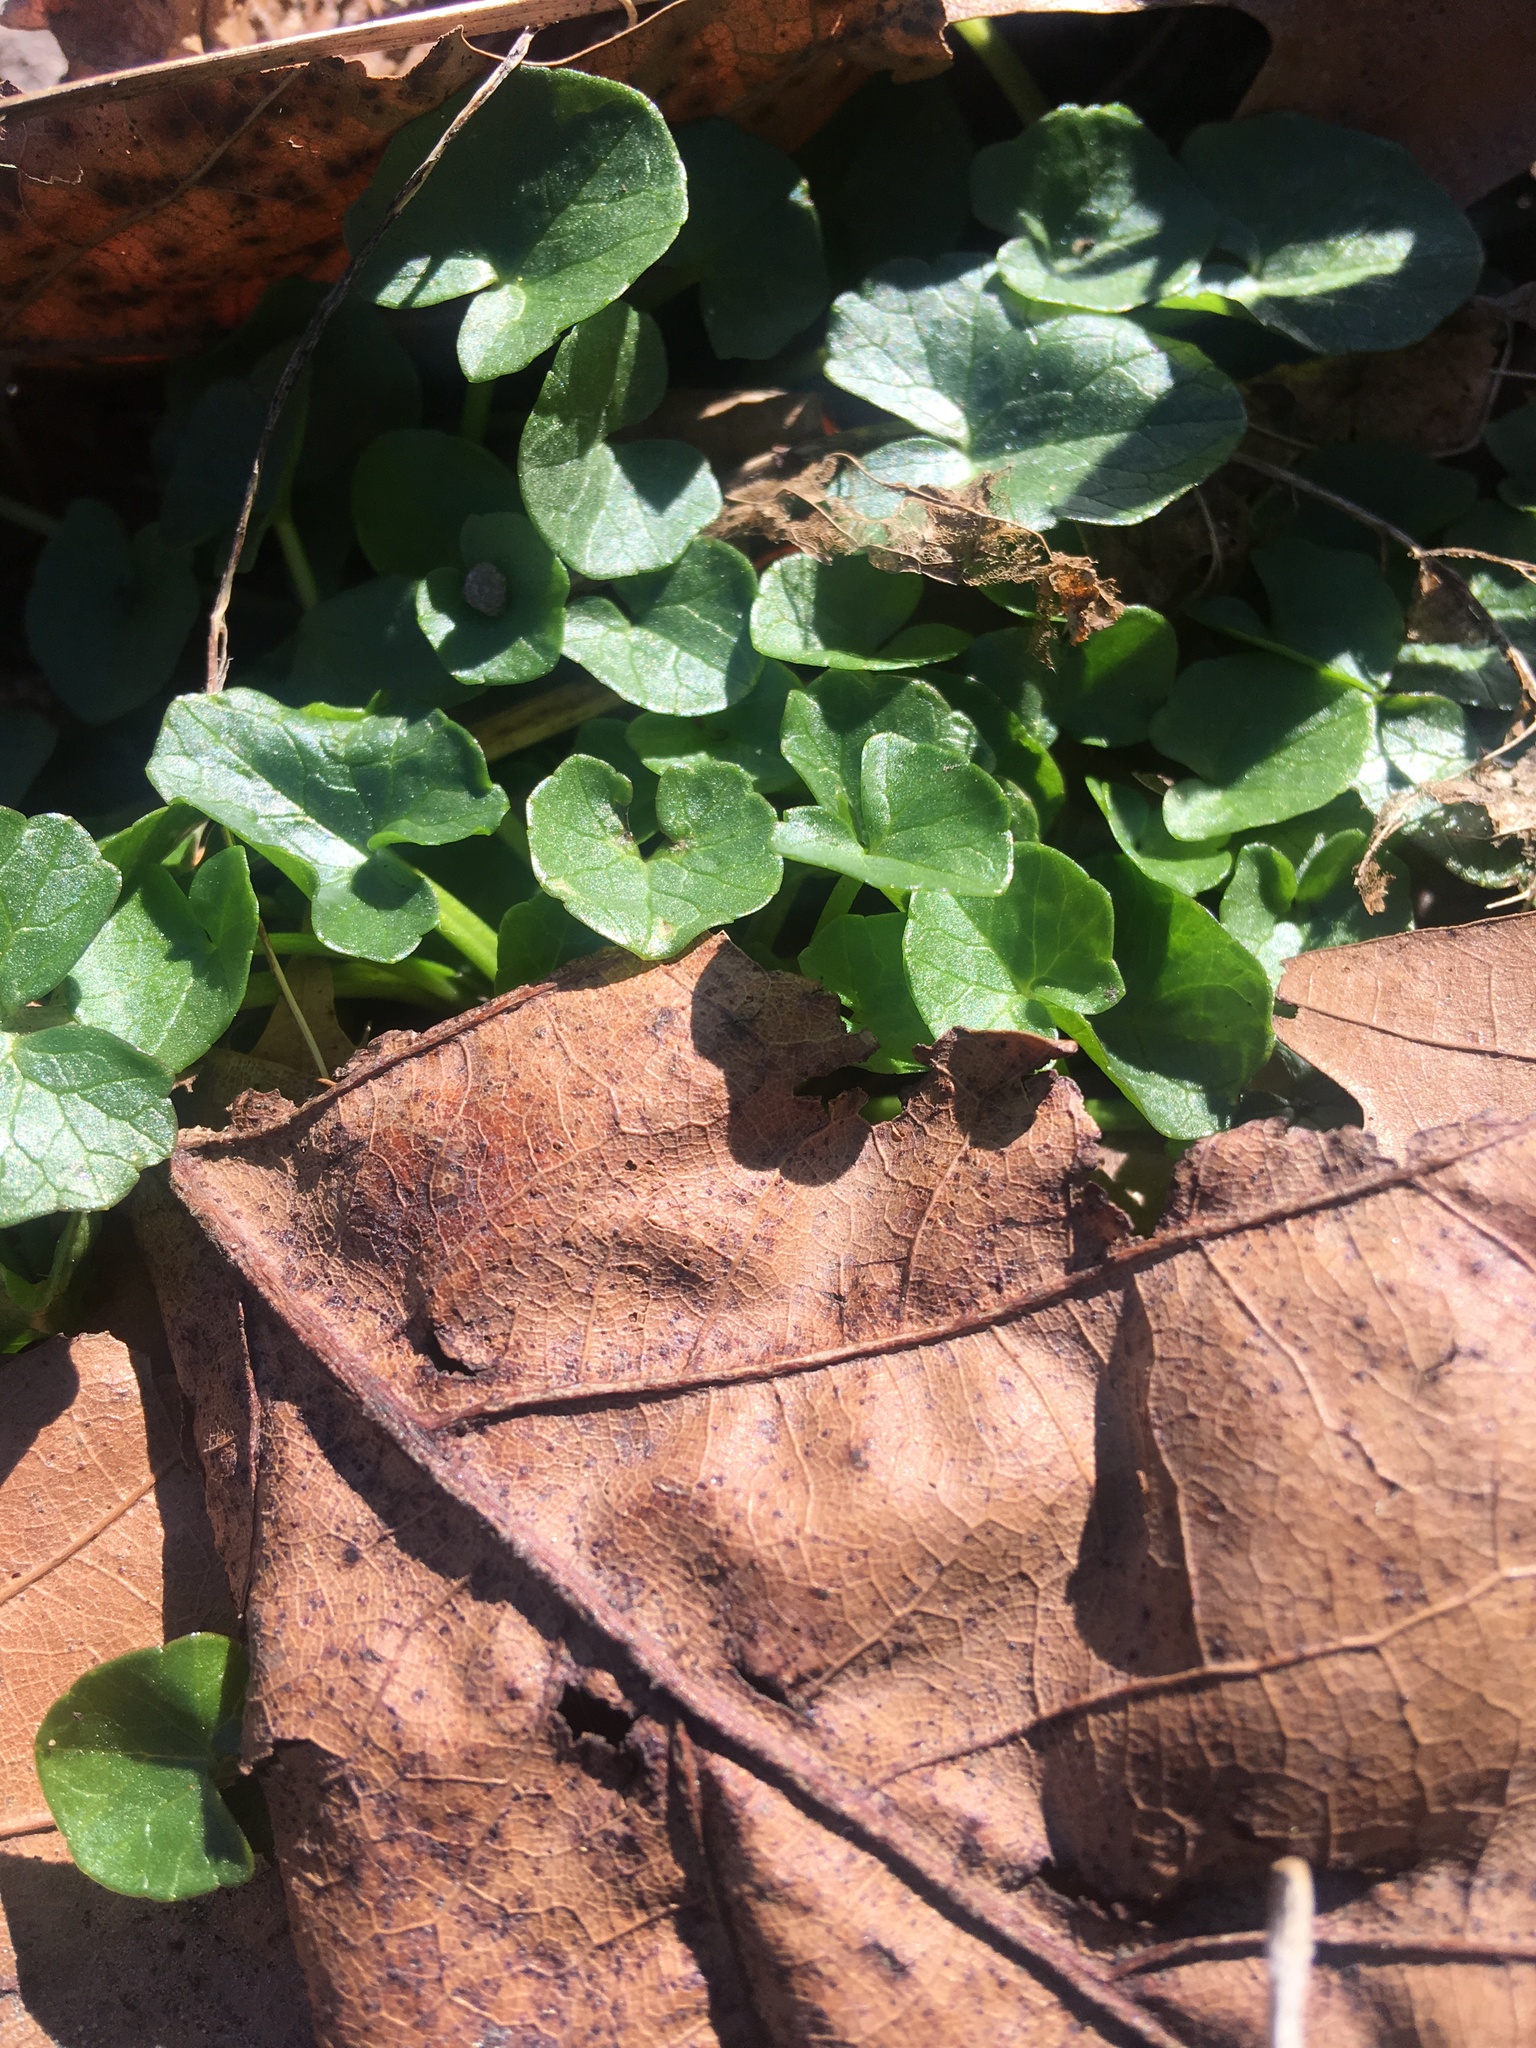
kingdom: Plantae
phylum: Tracheophyta
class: Magnoliopsida
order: Ranunculales
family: Ranunculaceae
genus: Ficaria
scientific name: Ficaria verna
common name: Lesser celandine
